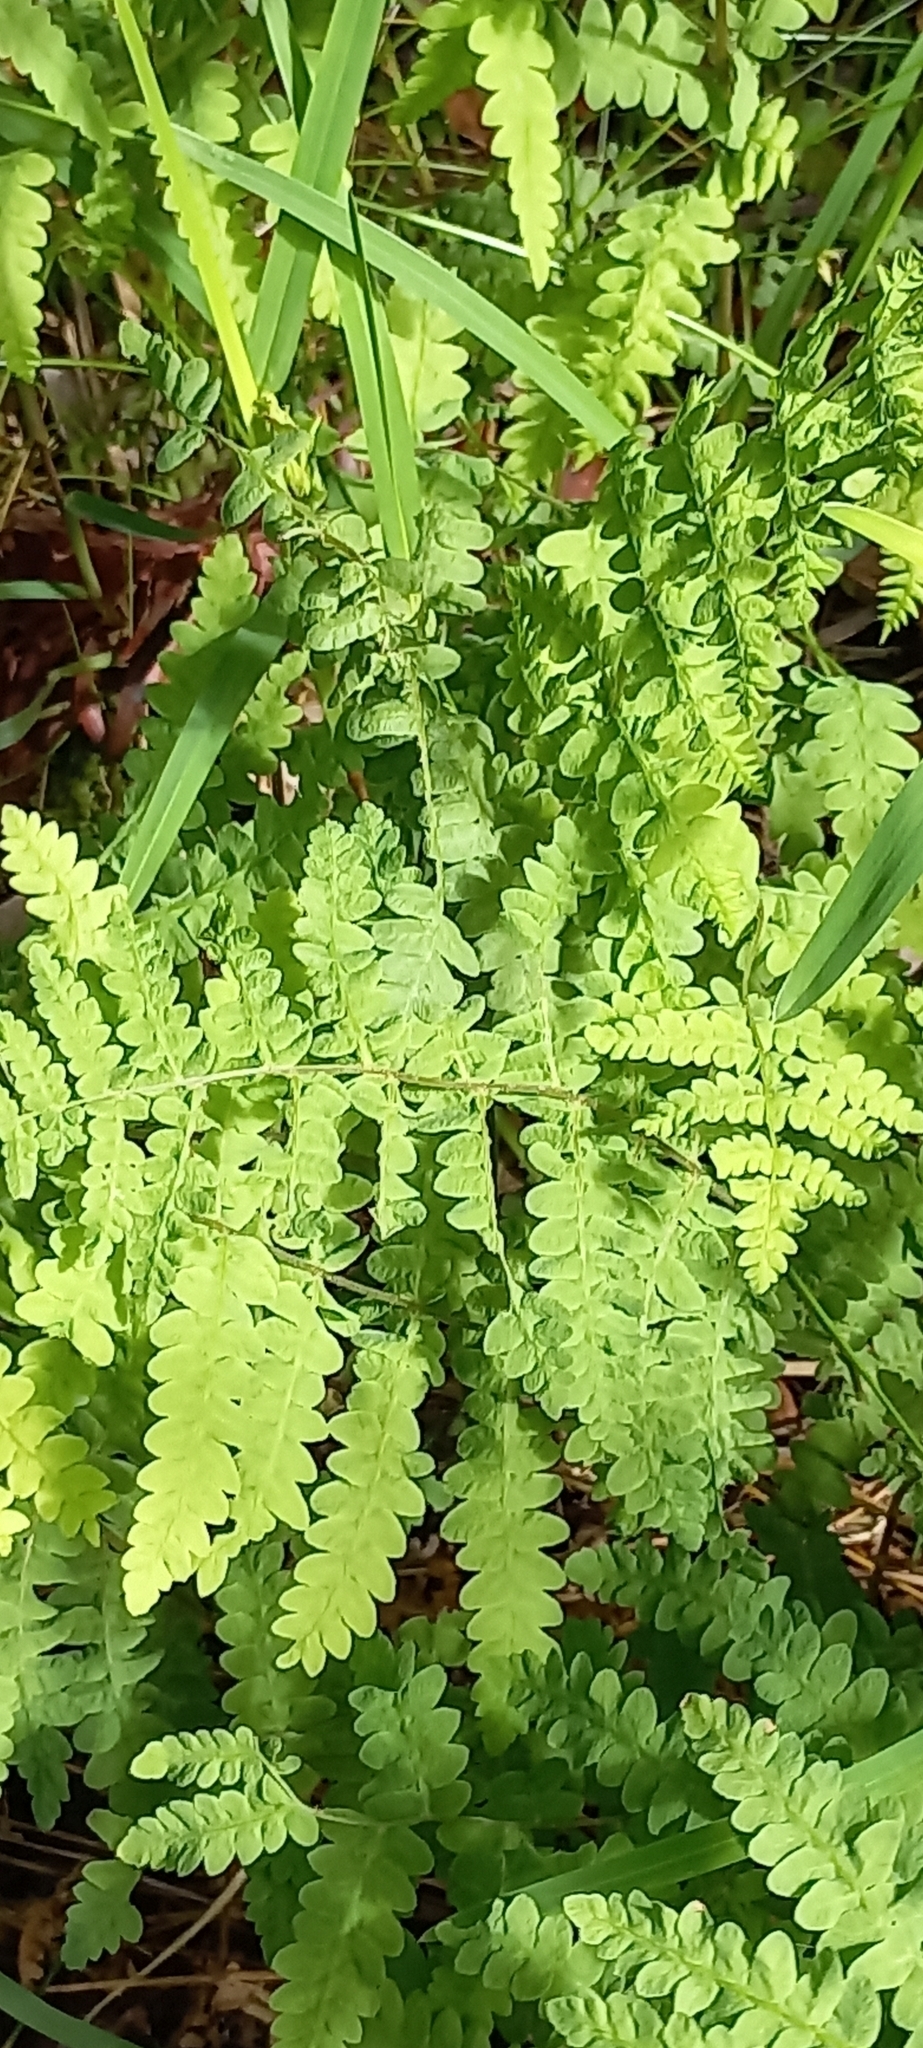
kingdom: Plantae
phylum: Tracheophyta
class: Polypodiopsida
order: Polypodiales
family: Thelypteridaceae
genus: Thelypteris
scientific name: Thelypteris confluens
